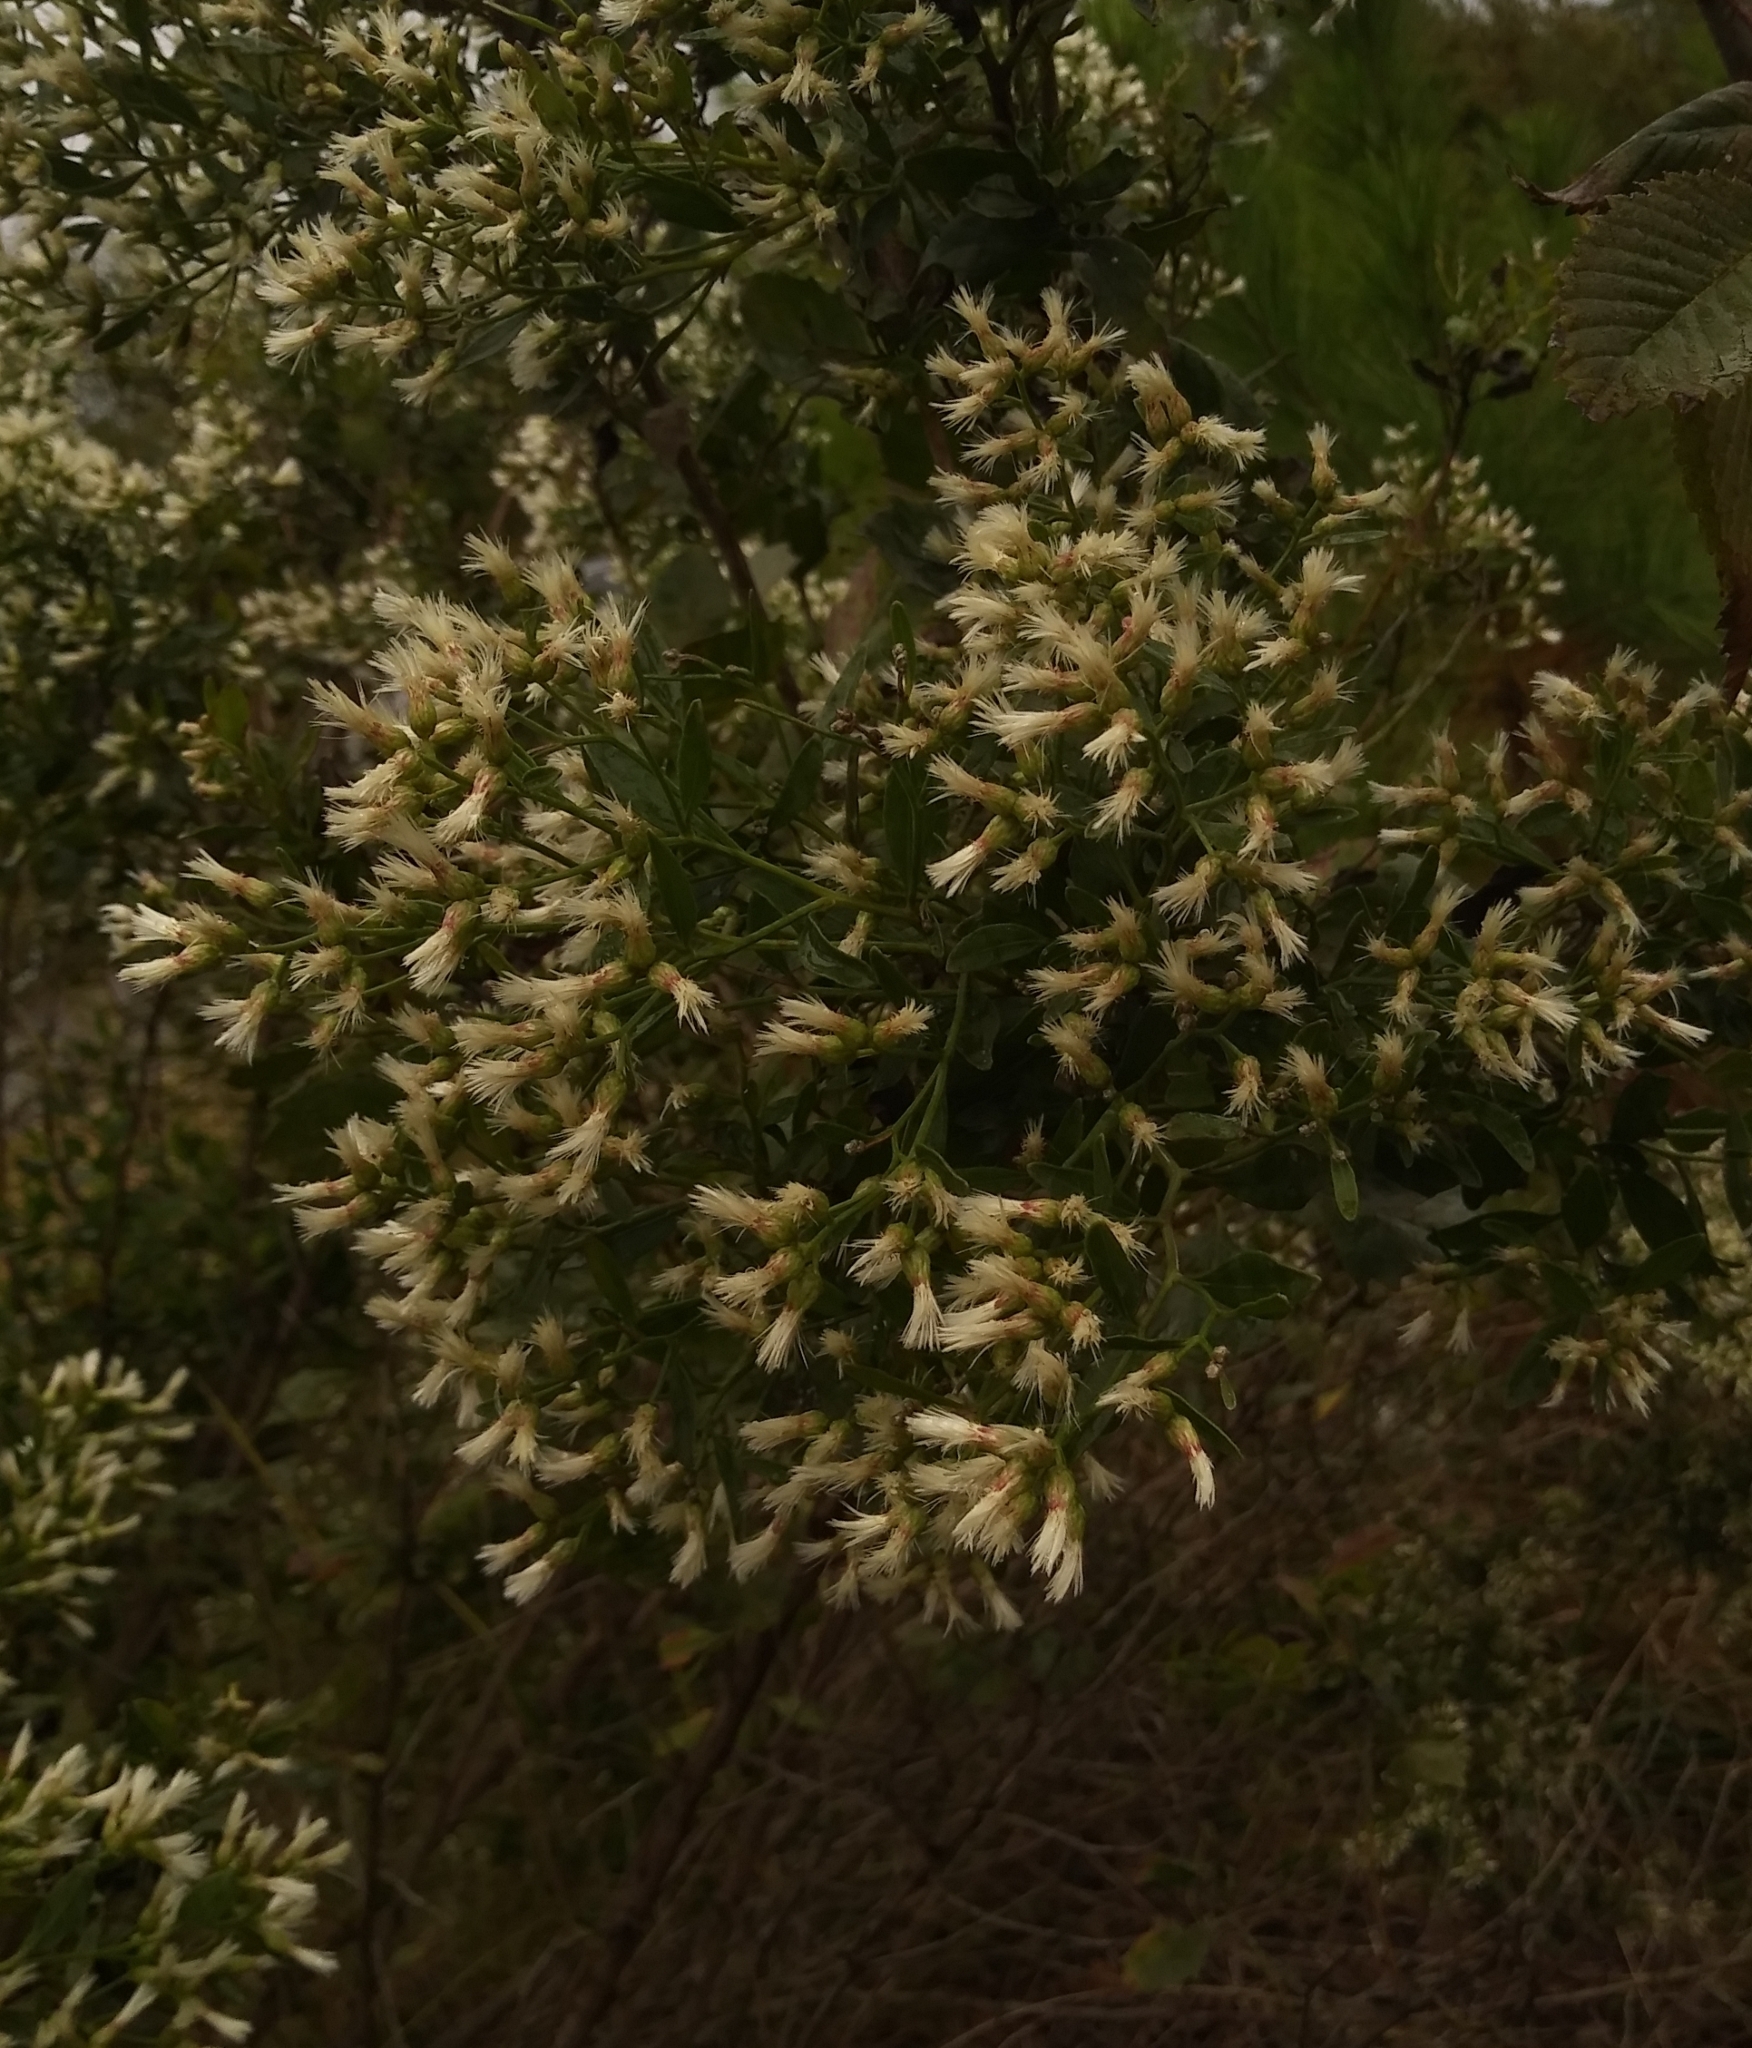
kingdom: Plantae
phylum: Tracheophyta
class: Magnoliopsida
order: Asterales
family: Asteraceae
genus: Baccharis
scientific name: Baccharis halimifolia
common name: Eastern baccharis
